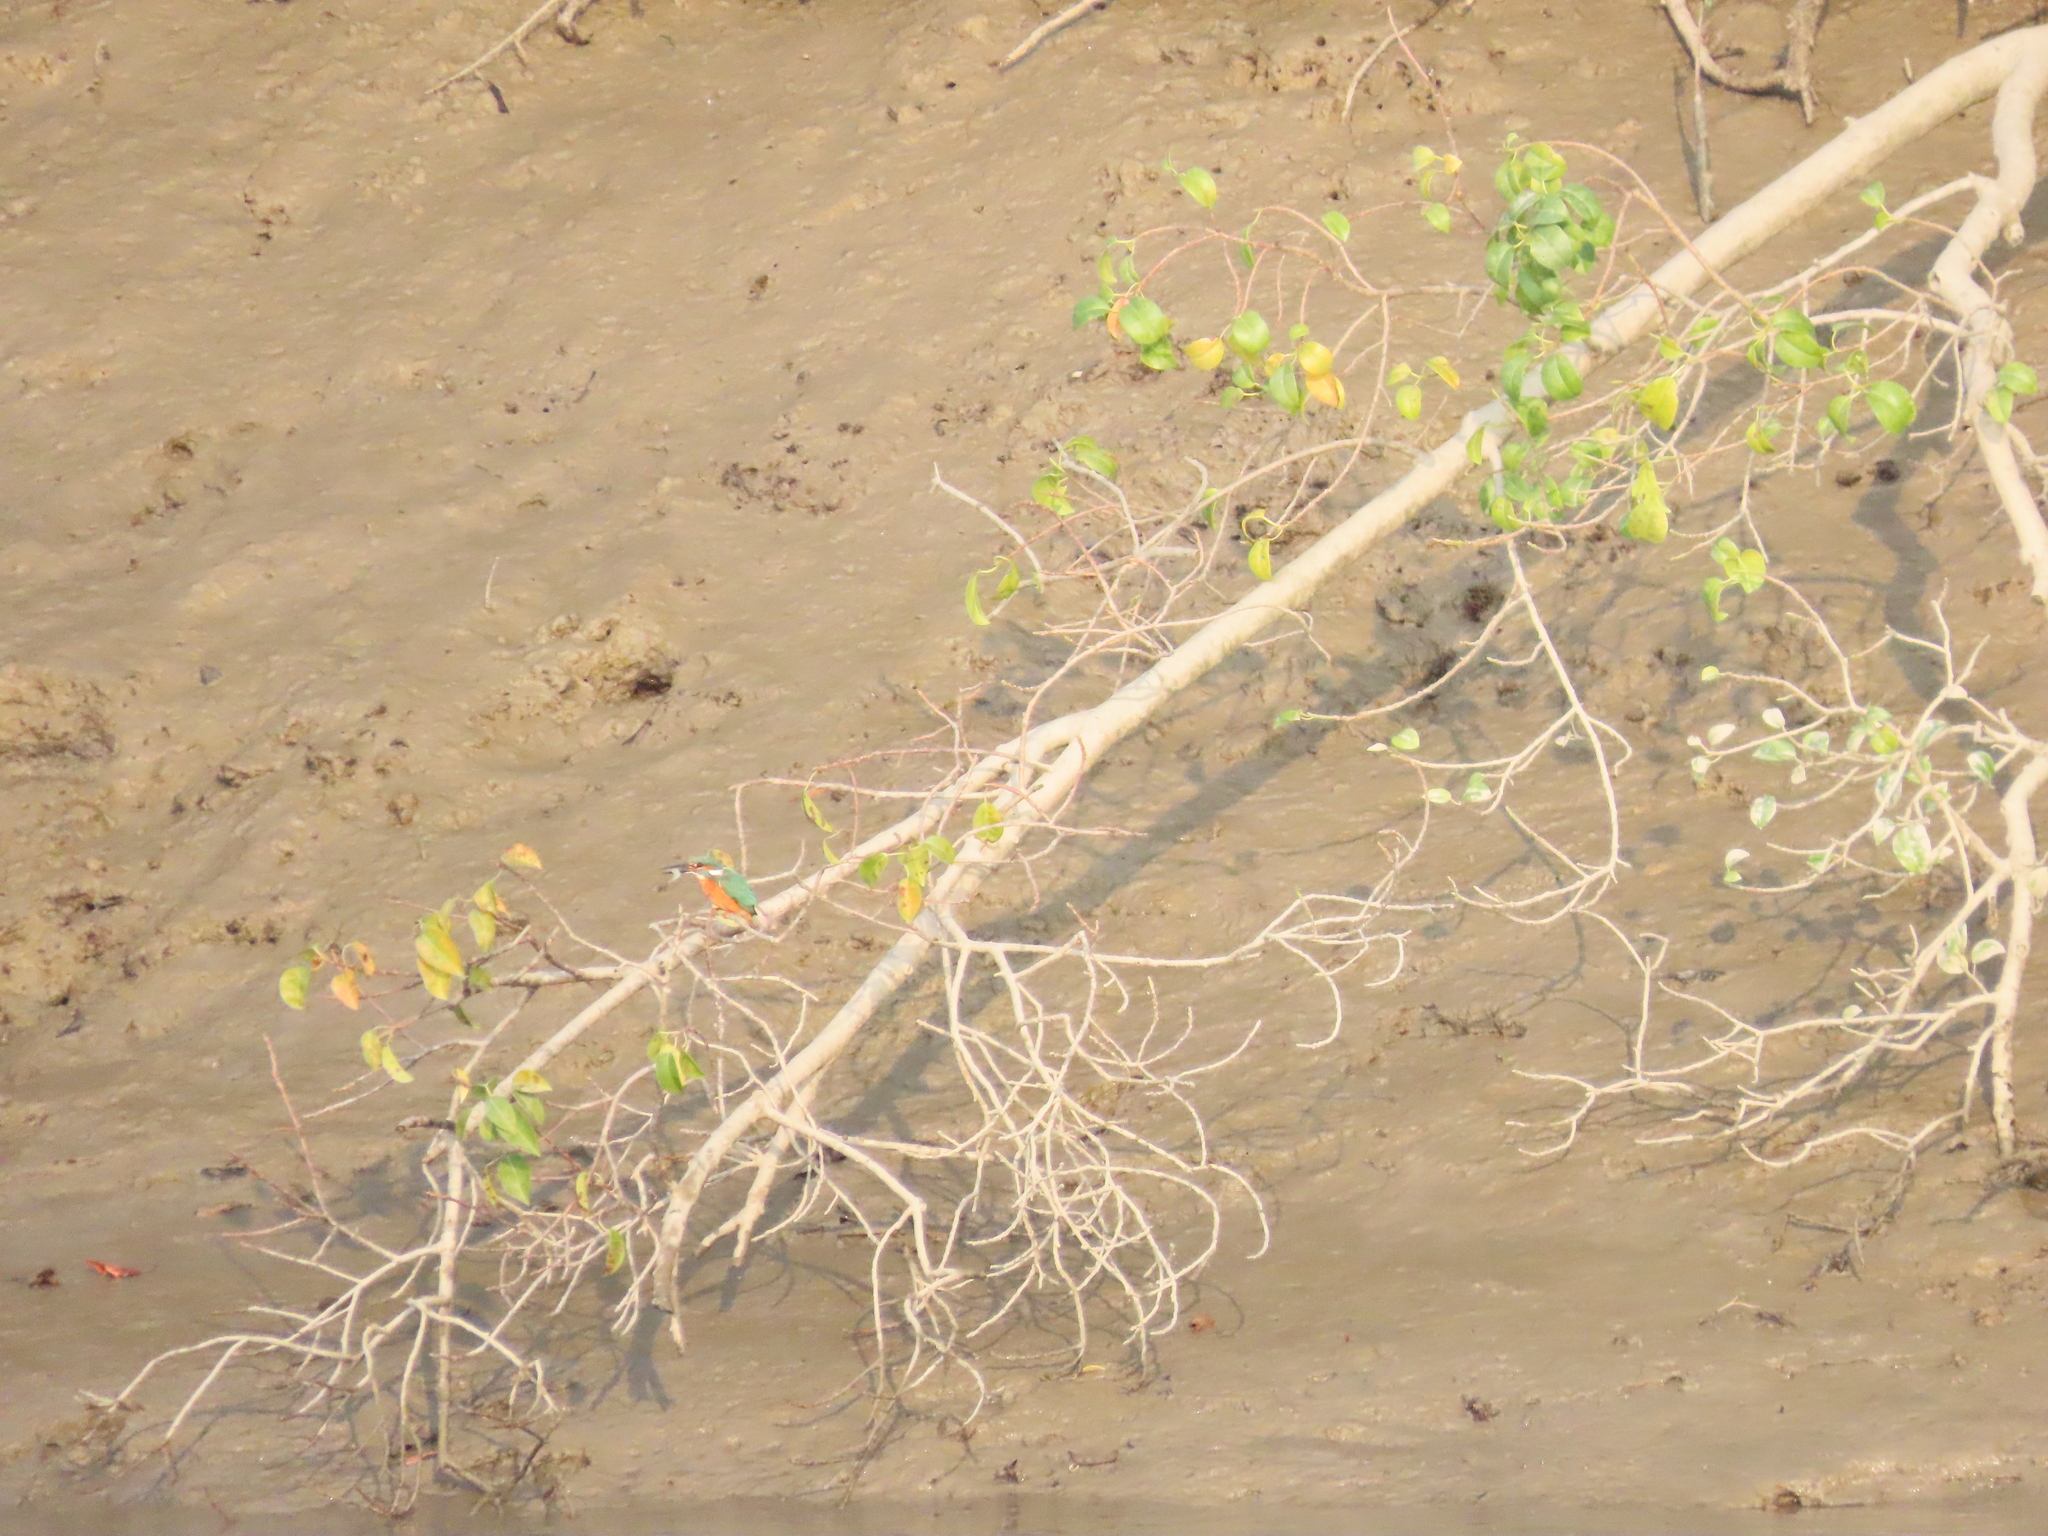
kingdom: Animalia
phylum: Chordata
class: Aves
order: Coraciiformes
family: Alcedinidae
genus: Alcedo
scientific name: Alcedo atthis
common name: Common kingfisher
